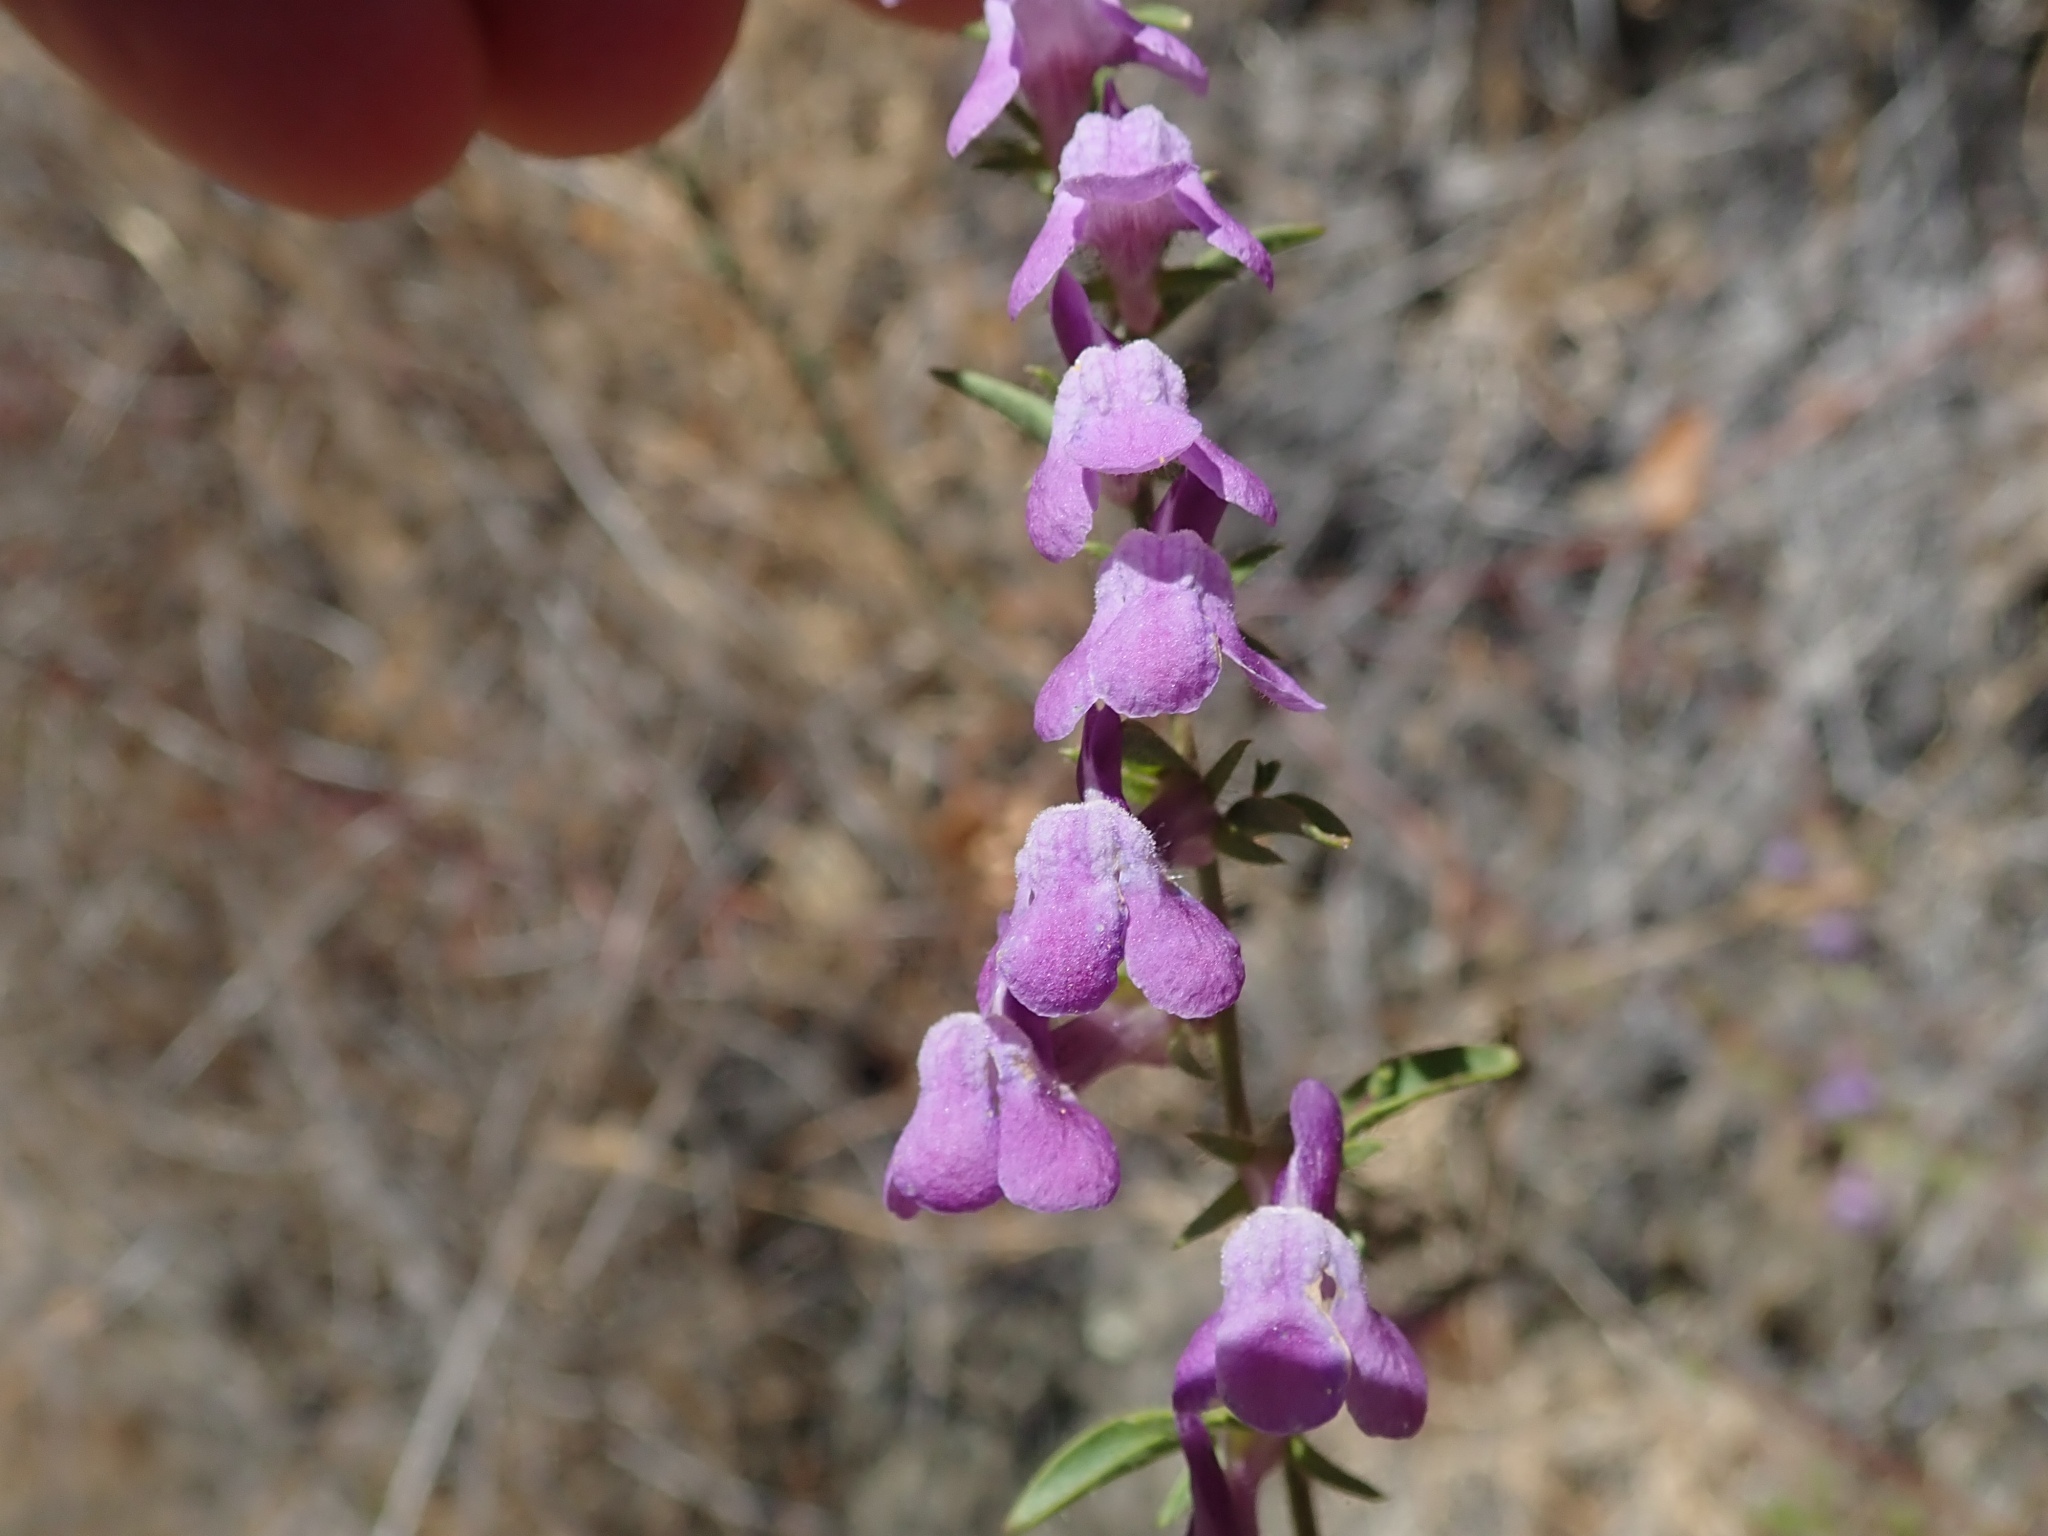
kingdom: Plantae
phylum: Tracheophyta
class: Magnoliopsida
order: Lamiales
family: Plantaginaceae
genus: Sairocarpus
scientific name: Sairocarpus vexillocalyculatus
